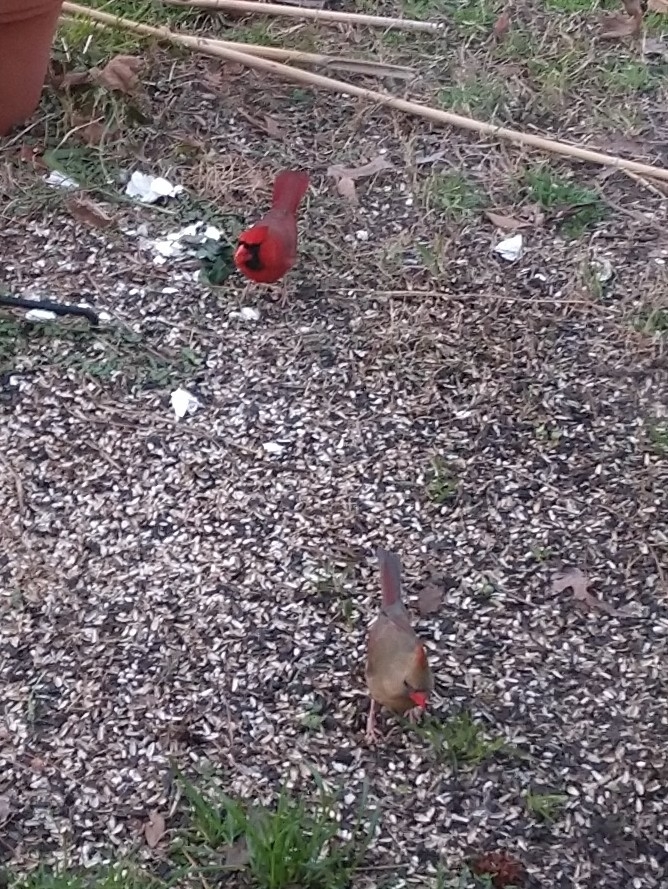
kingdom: Animalia
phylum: Chordata
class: Aves
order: Passeriformes
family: Cardinalidae
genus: Cardinalis
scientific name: Cardinalis cardinalis
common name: Northern cardinal
